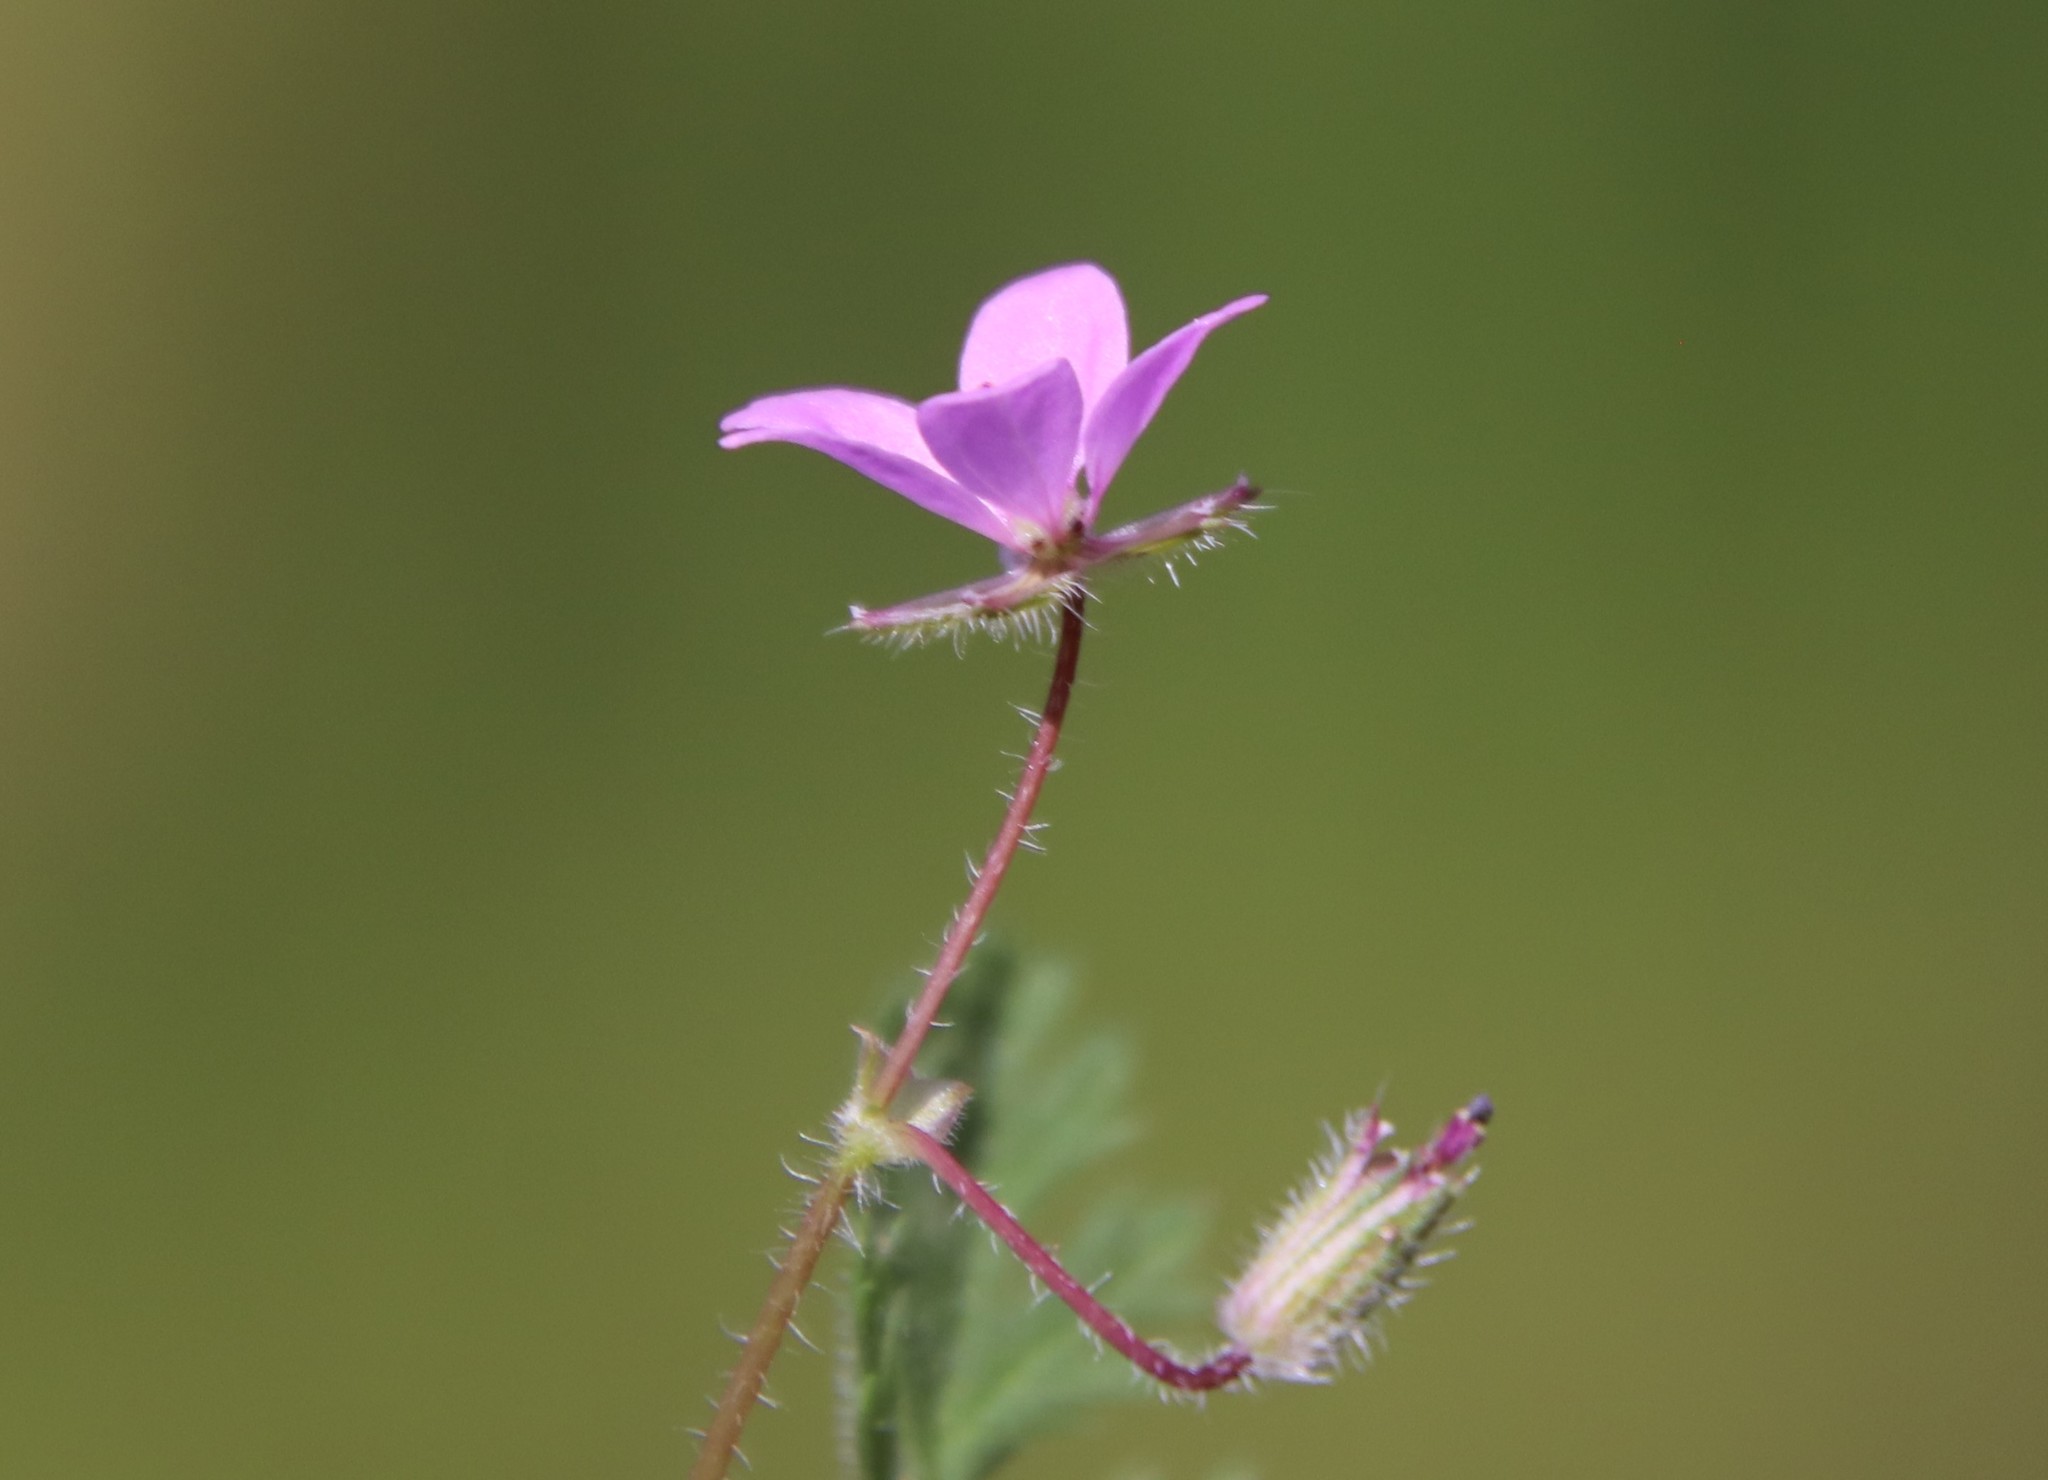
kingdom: Plantae
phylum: Tracheophyta
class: Magnoliopsida
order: Geraniales
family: Geraniaceae
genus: Erodium
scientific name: Erodium cicutarium
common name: Common stork's-bill
